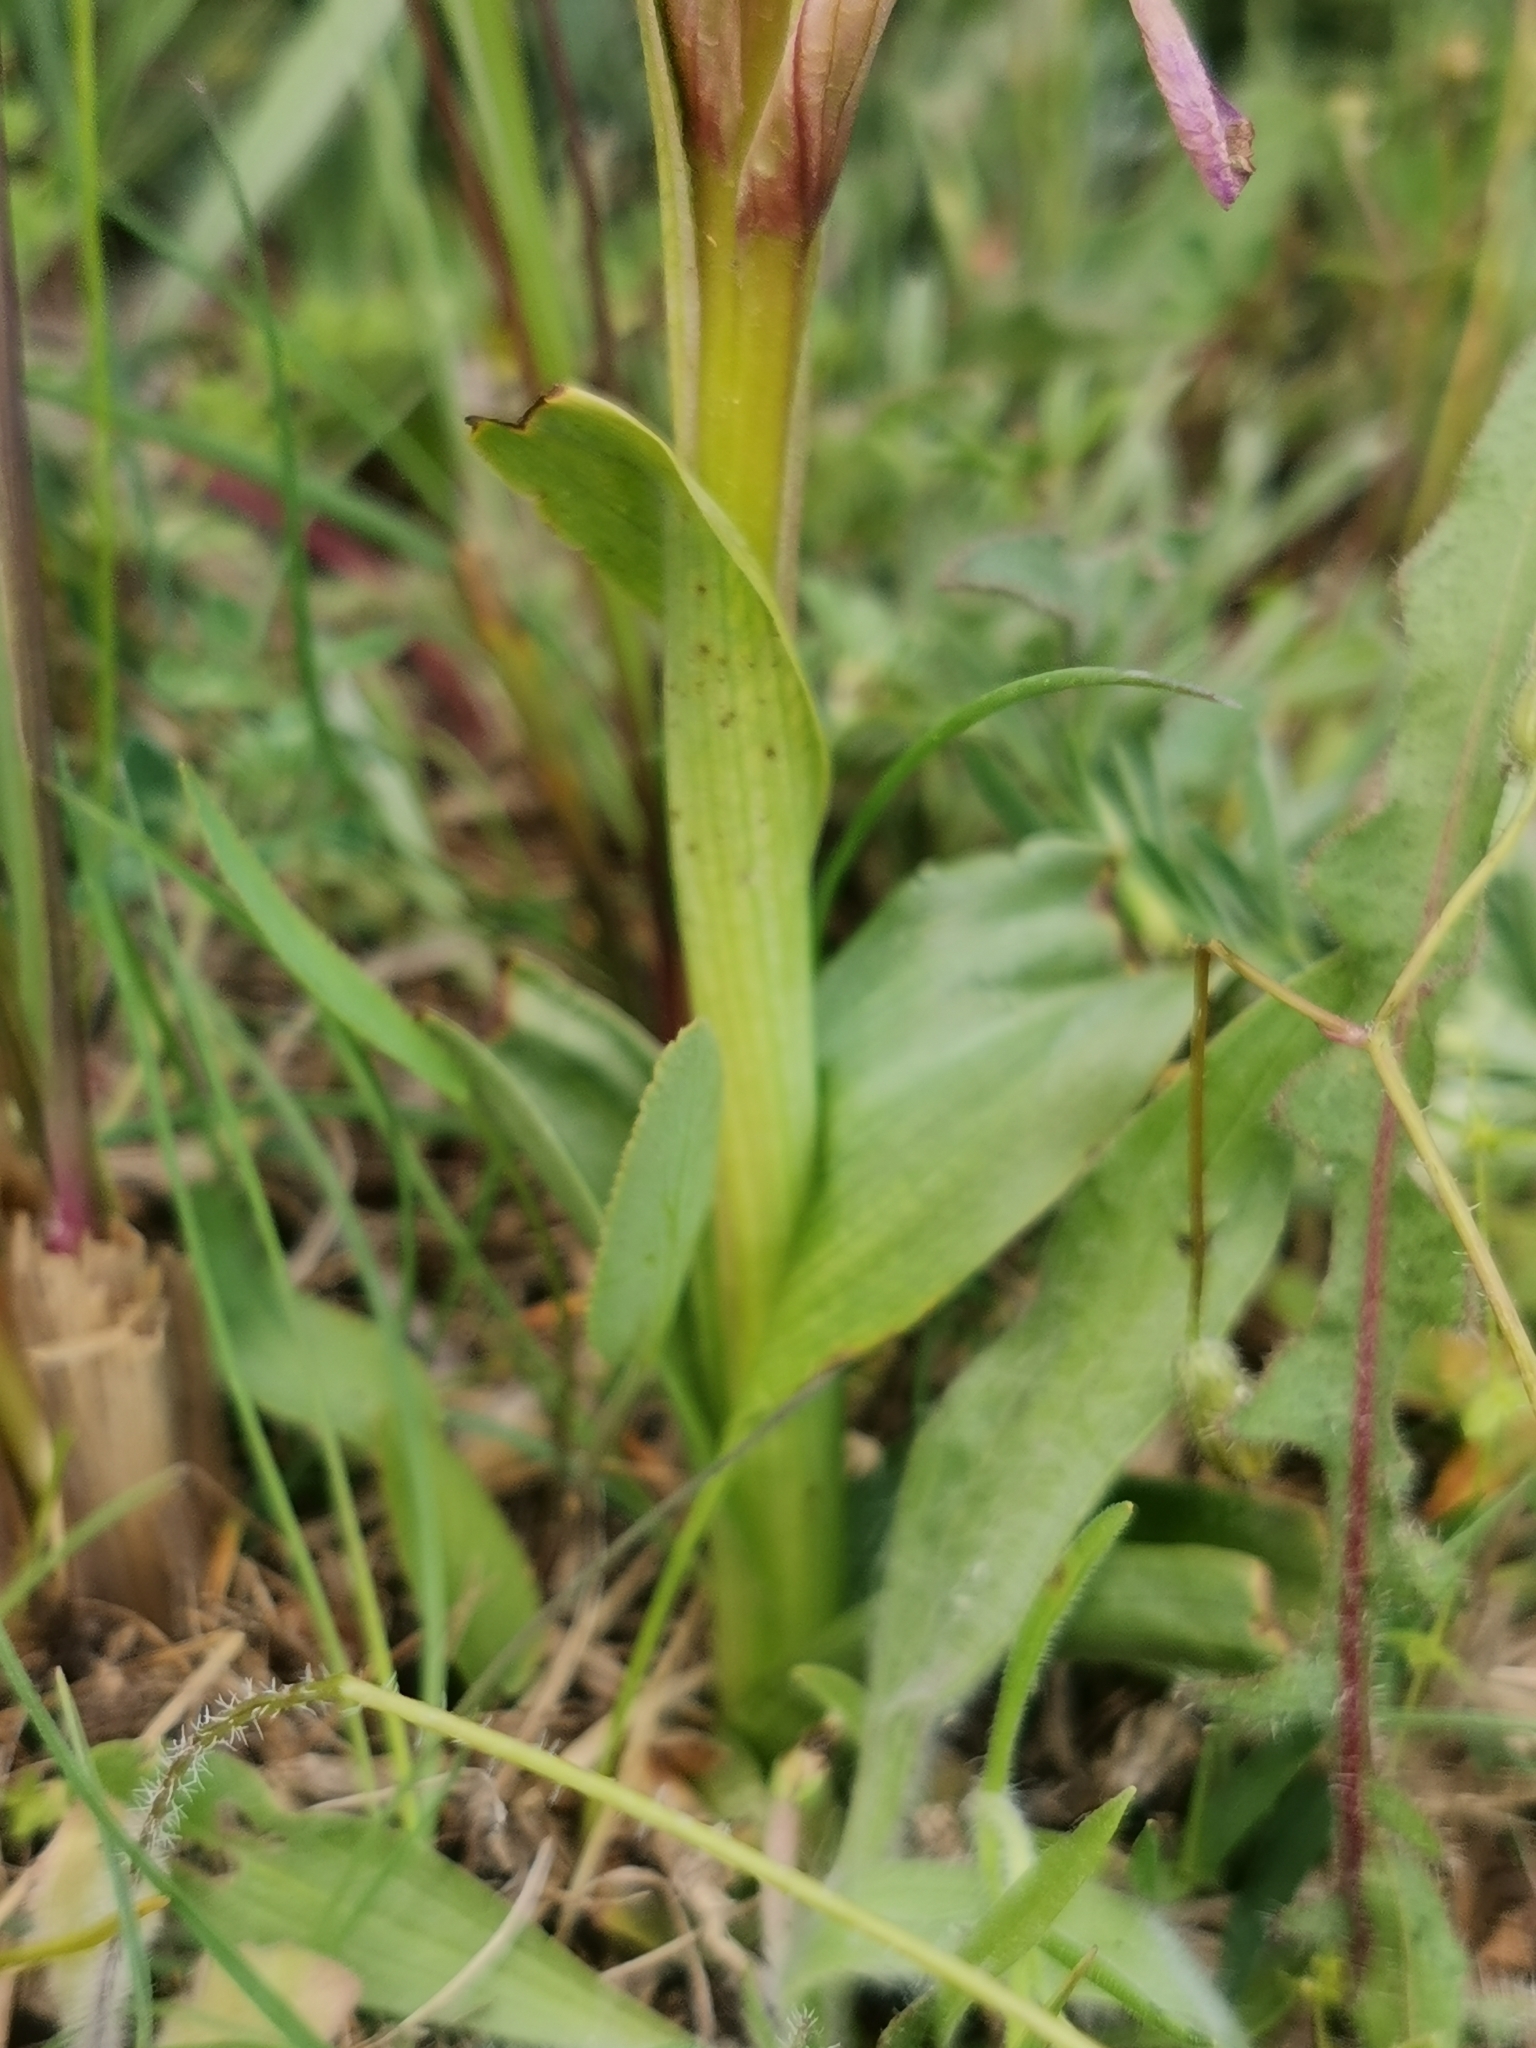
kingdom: Plantae
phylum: Tracheophyta
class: Liliopsida
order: Asparagales
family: Orchidaceae
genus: Anacamptis
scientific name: Anacamptis papilionacea
